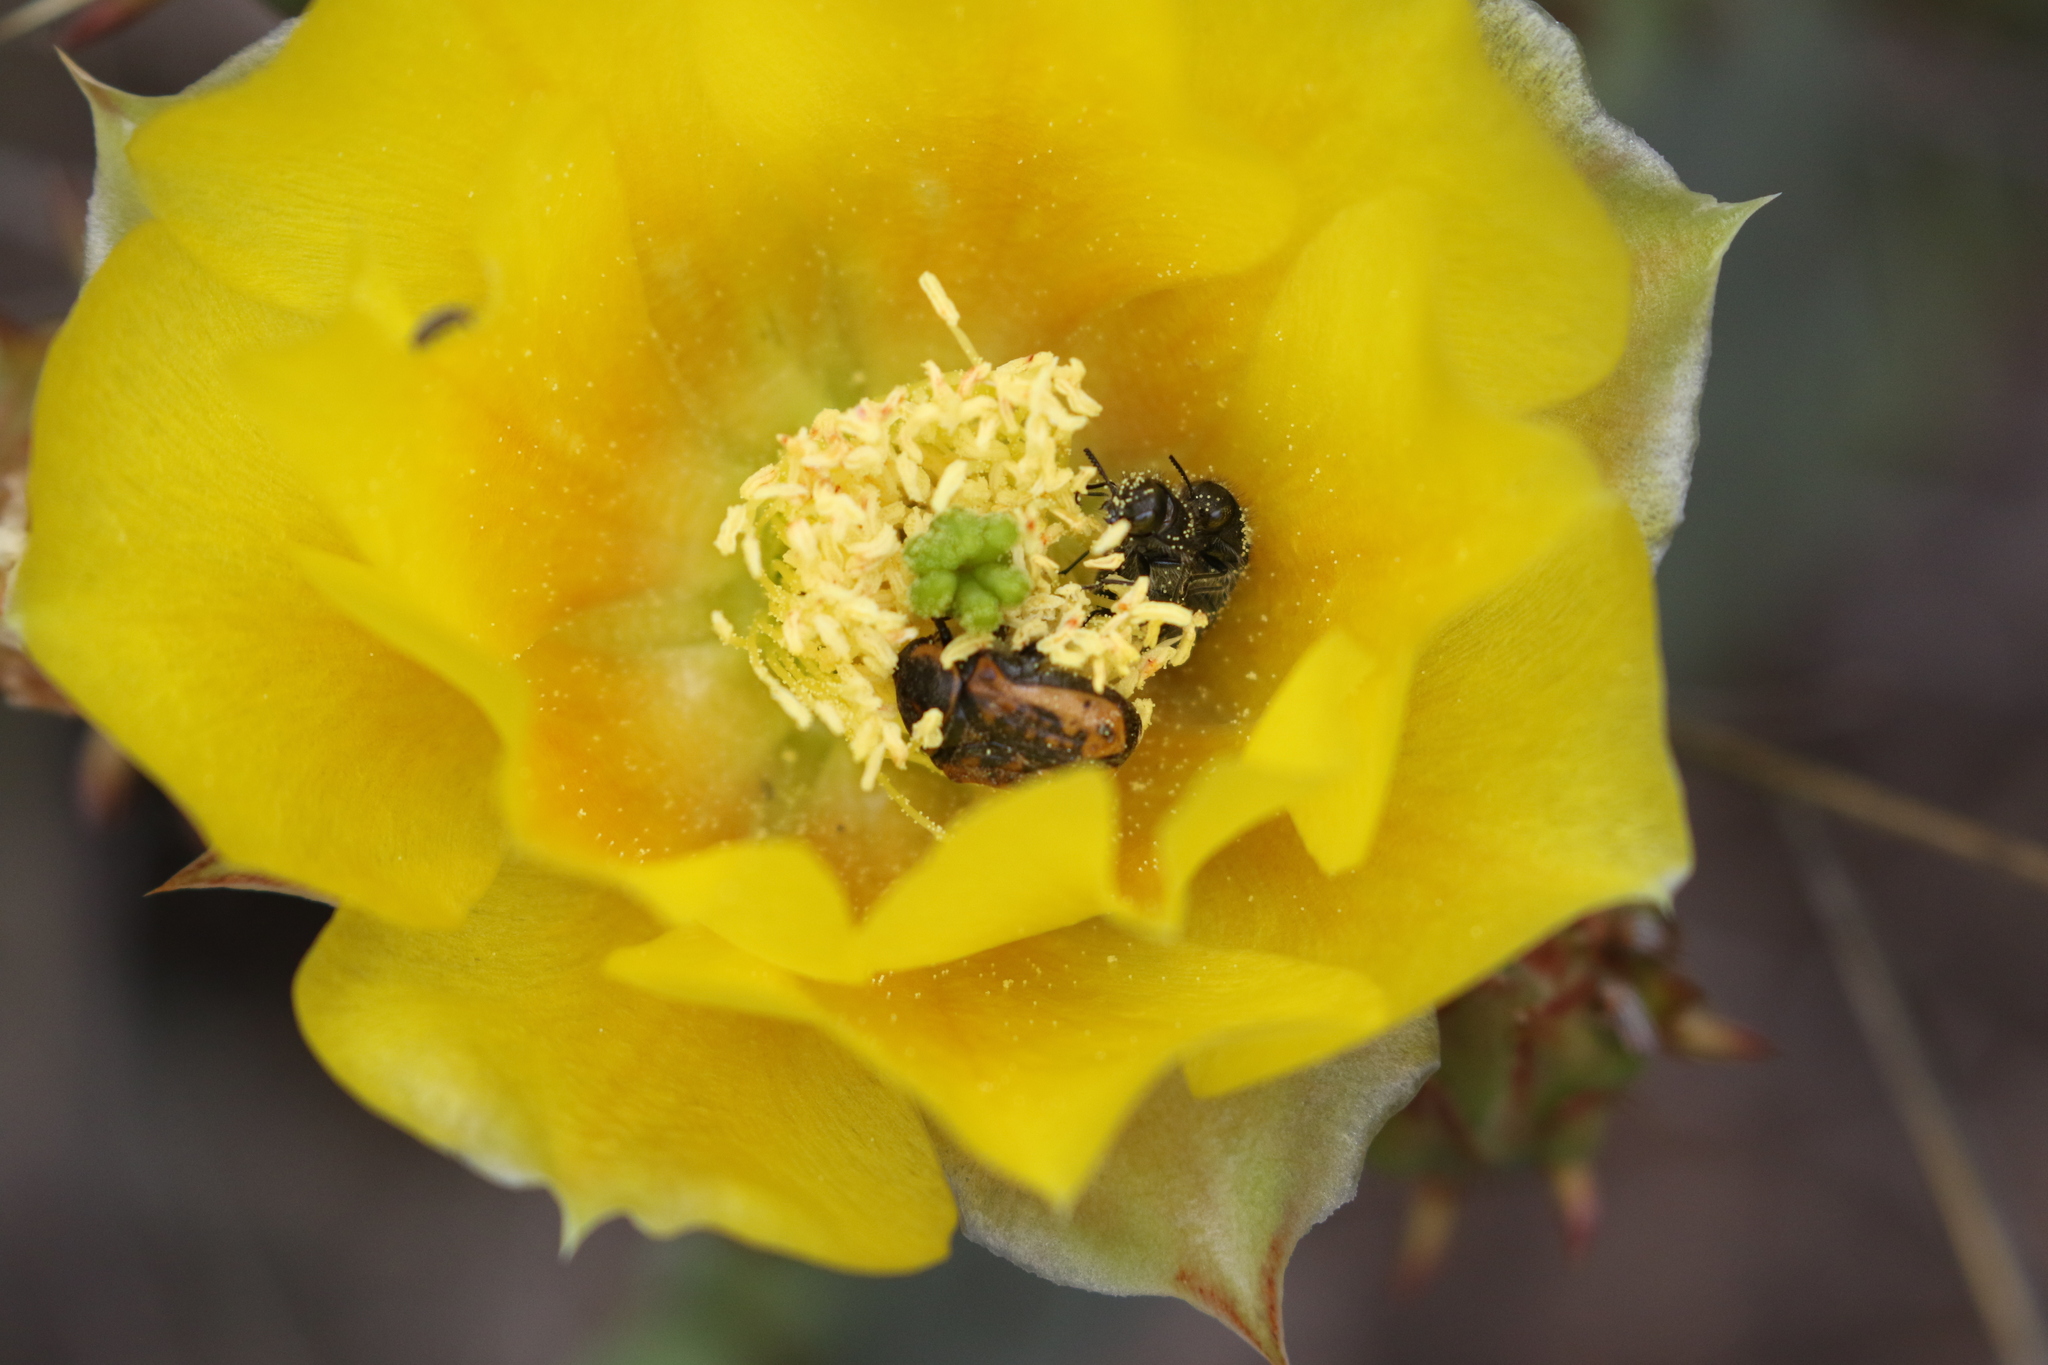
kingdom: Animalia
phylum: Arthropoda
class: Insecta
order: Coleoptera
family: Scarabaeidae
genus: Euphoria
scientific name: Euphoria kernii
